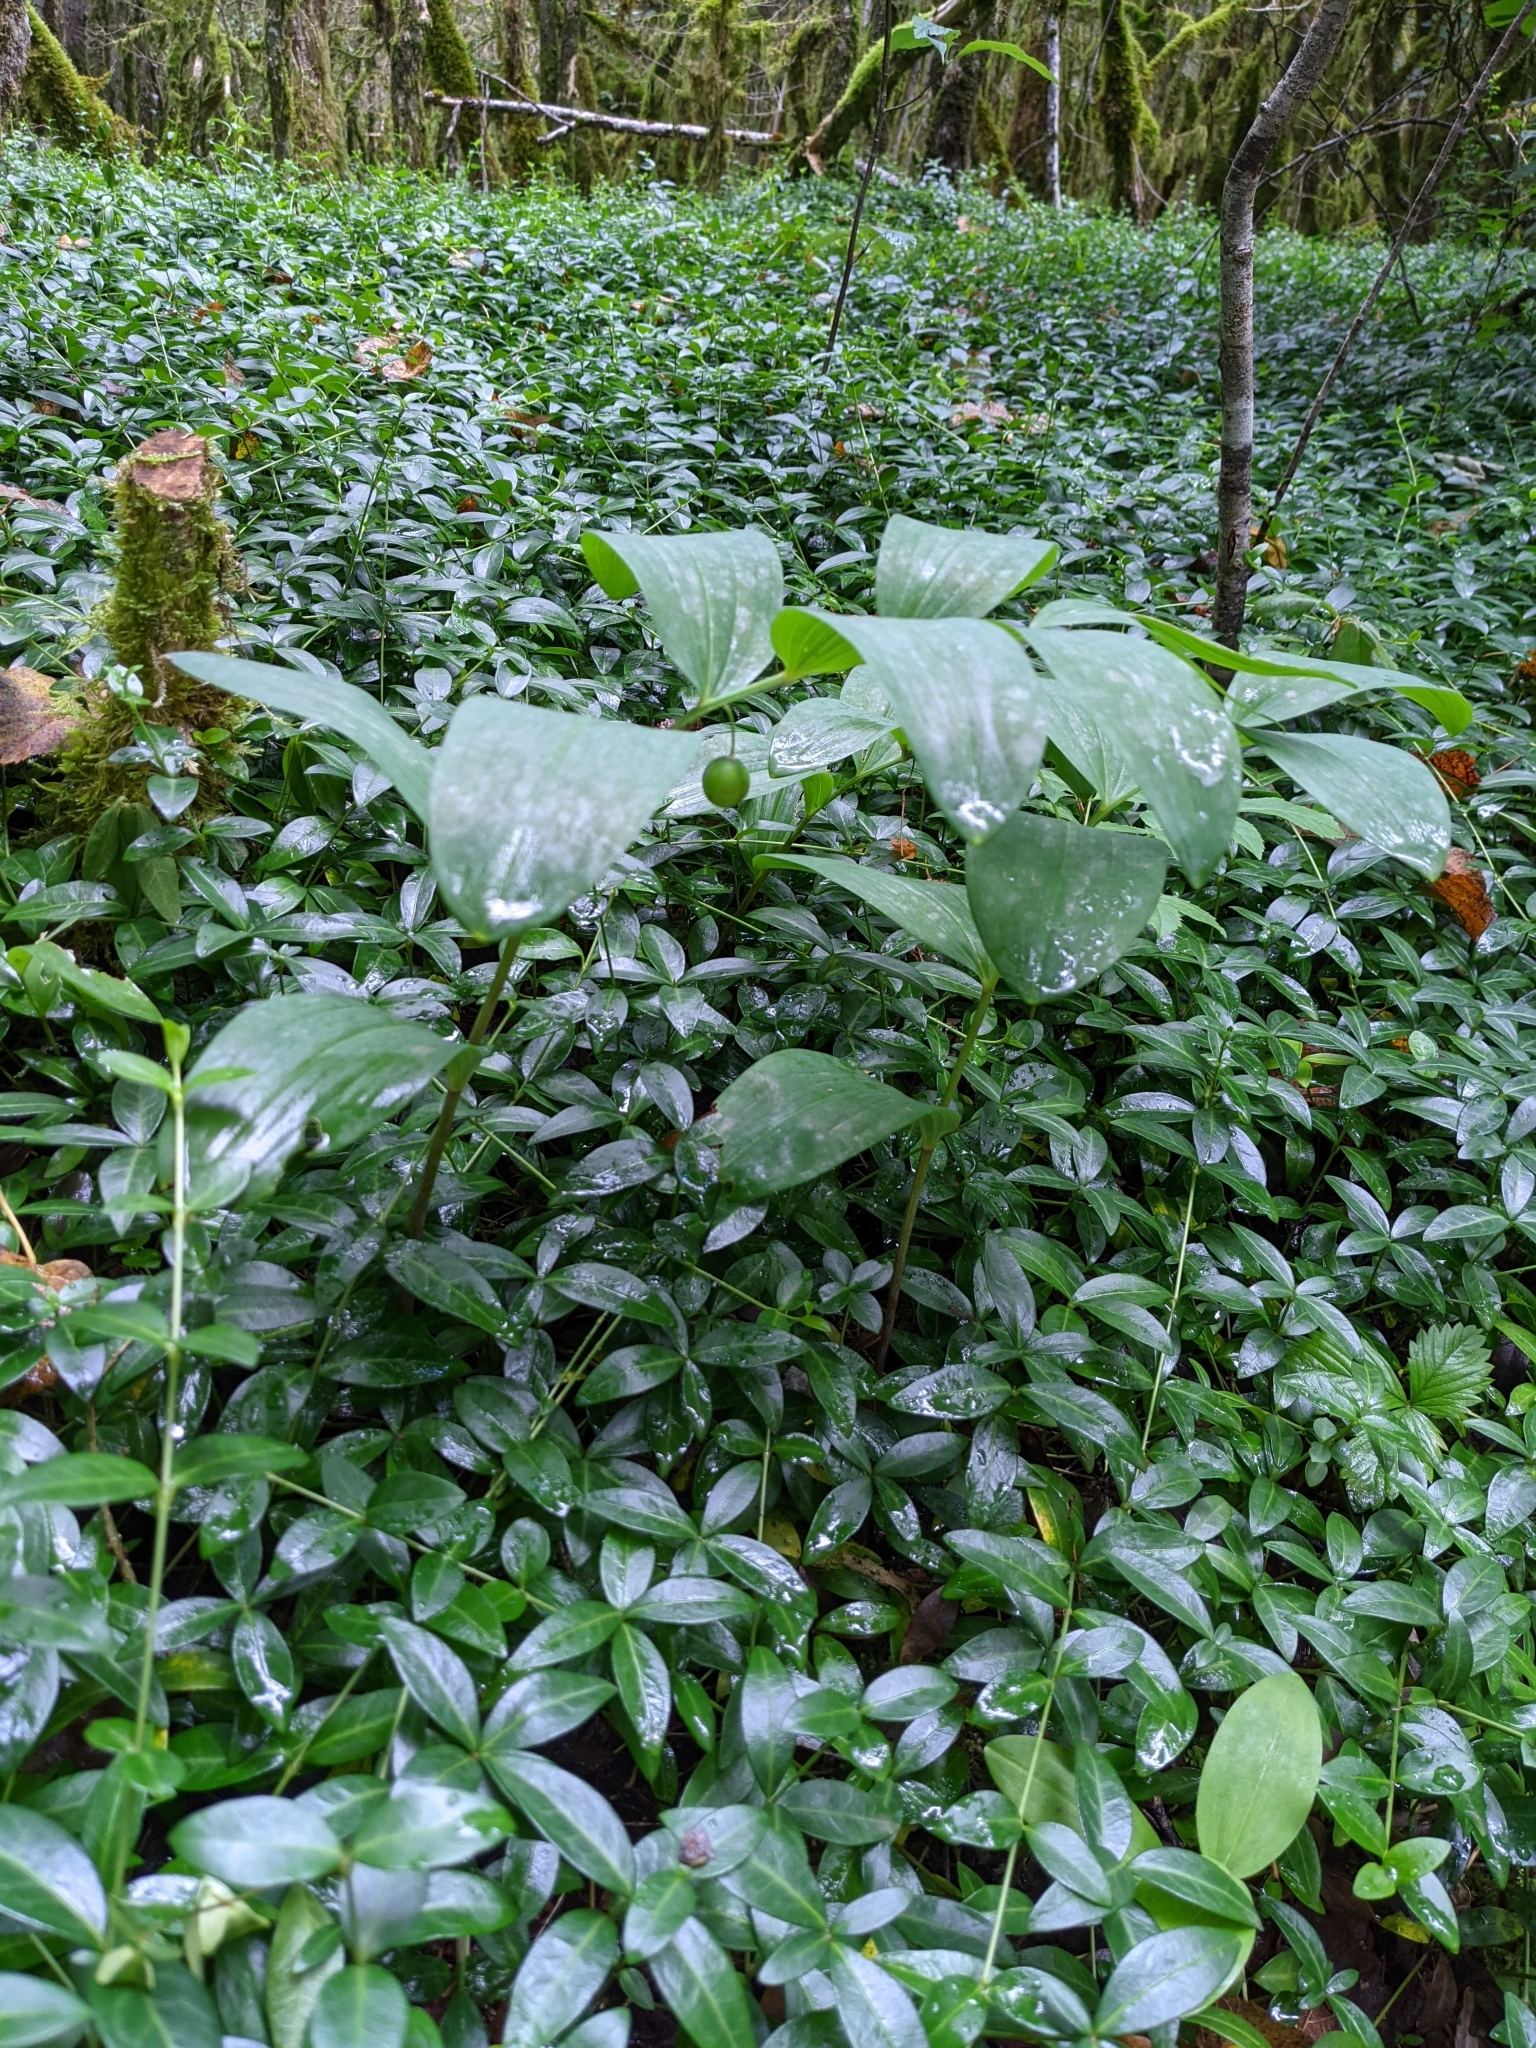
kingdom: Plantae
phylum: Tracheophyta
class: Liliopsida
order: Asparagales
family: Asparagaceae
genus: Polygonatum
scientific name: Polygonatum odoratum
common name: Angular solomon's-seal
